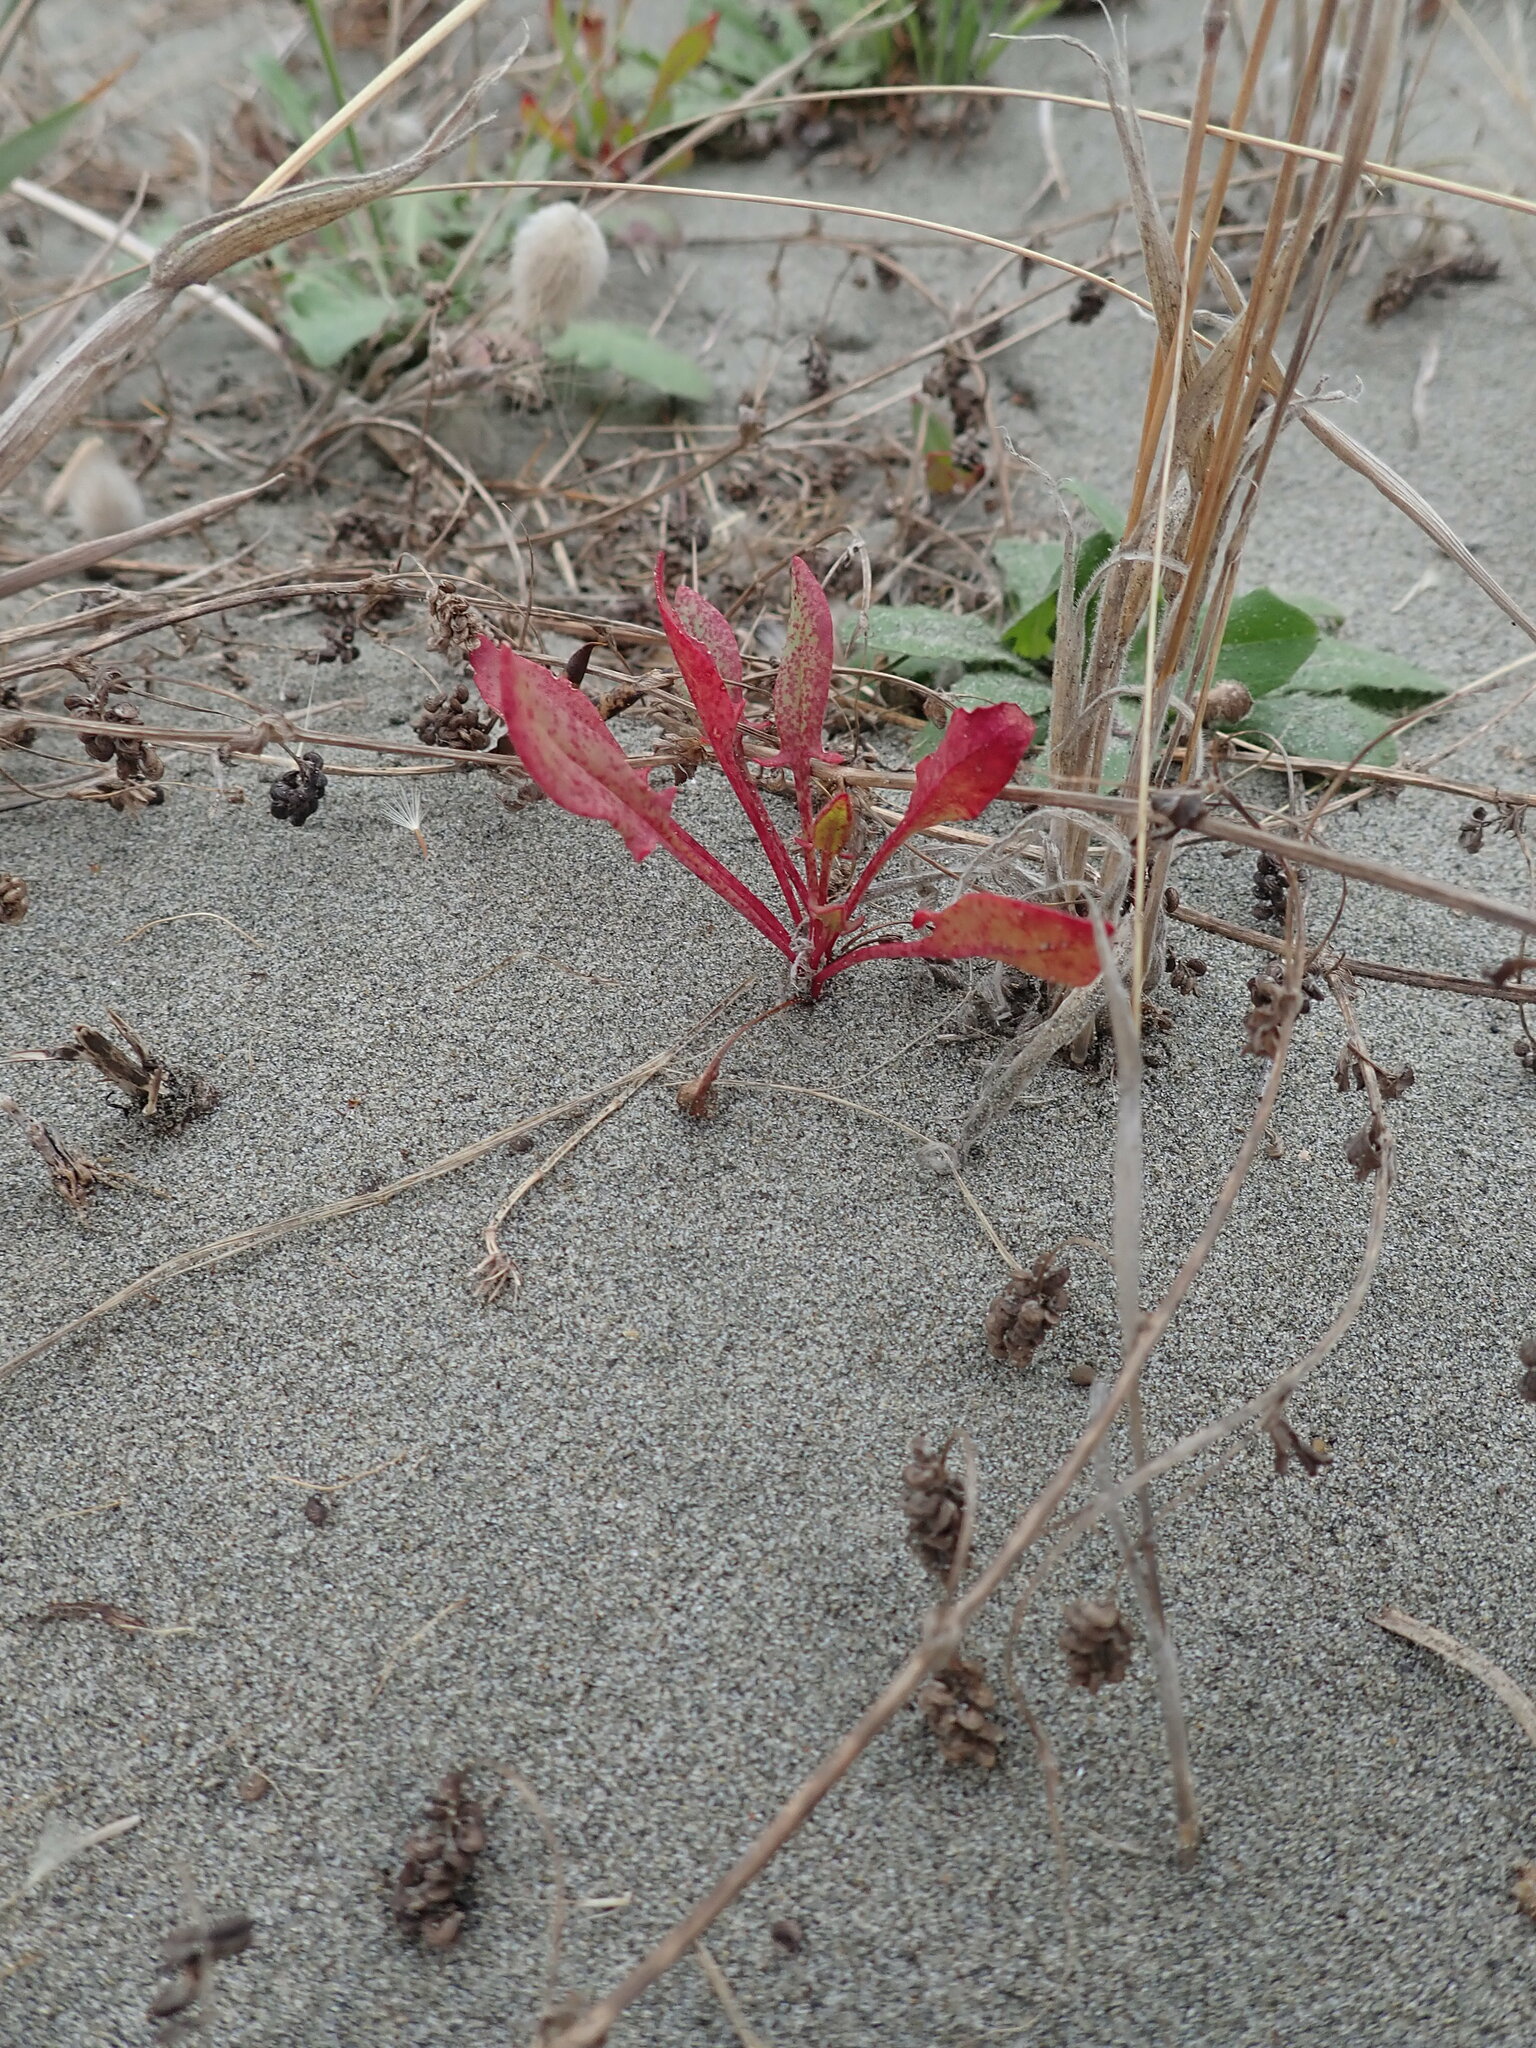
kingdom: Plantae
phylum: Tracheophyta
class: Magnoliopsida
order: Caryophyllales
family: Polygonaceae
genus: Rumex
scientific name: Rumex acetosella
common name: Common sheep sorrel
